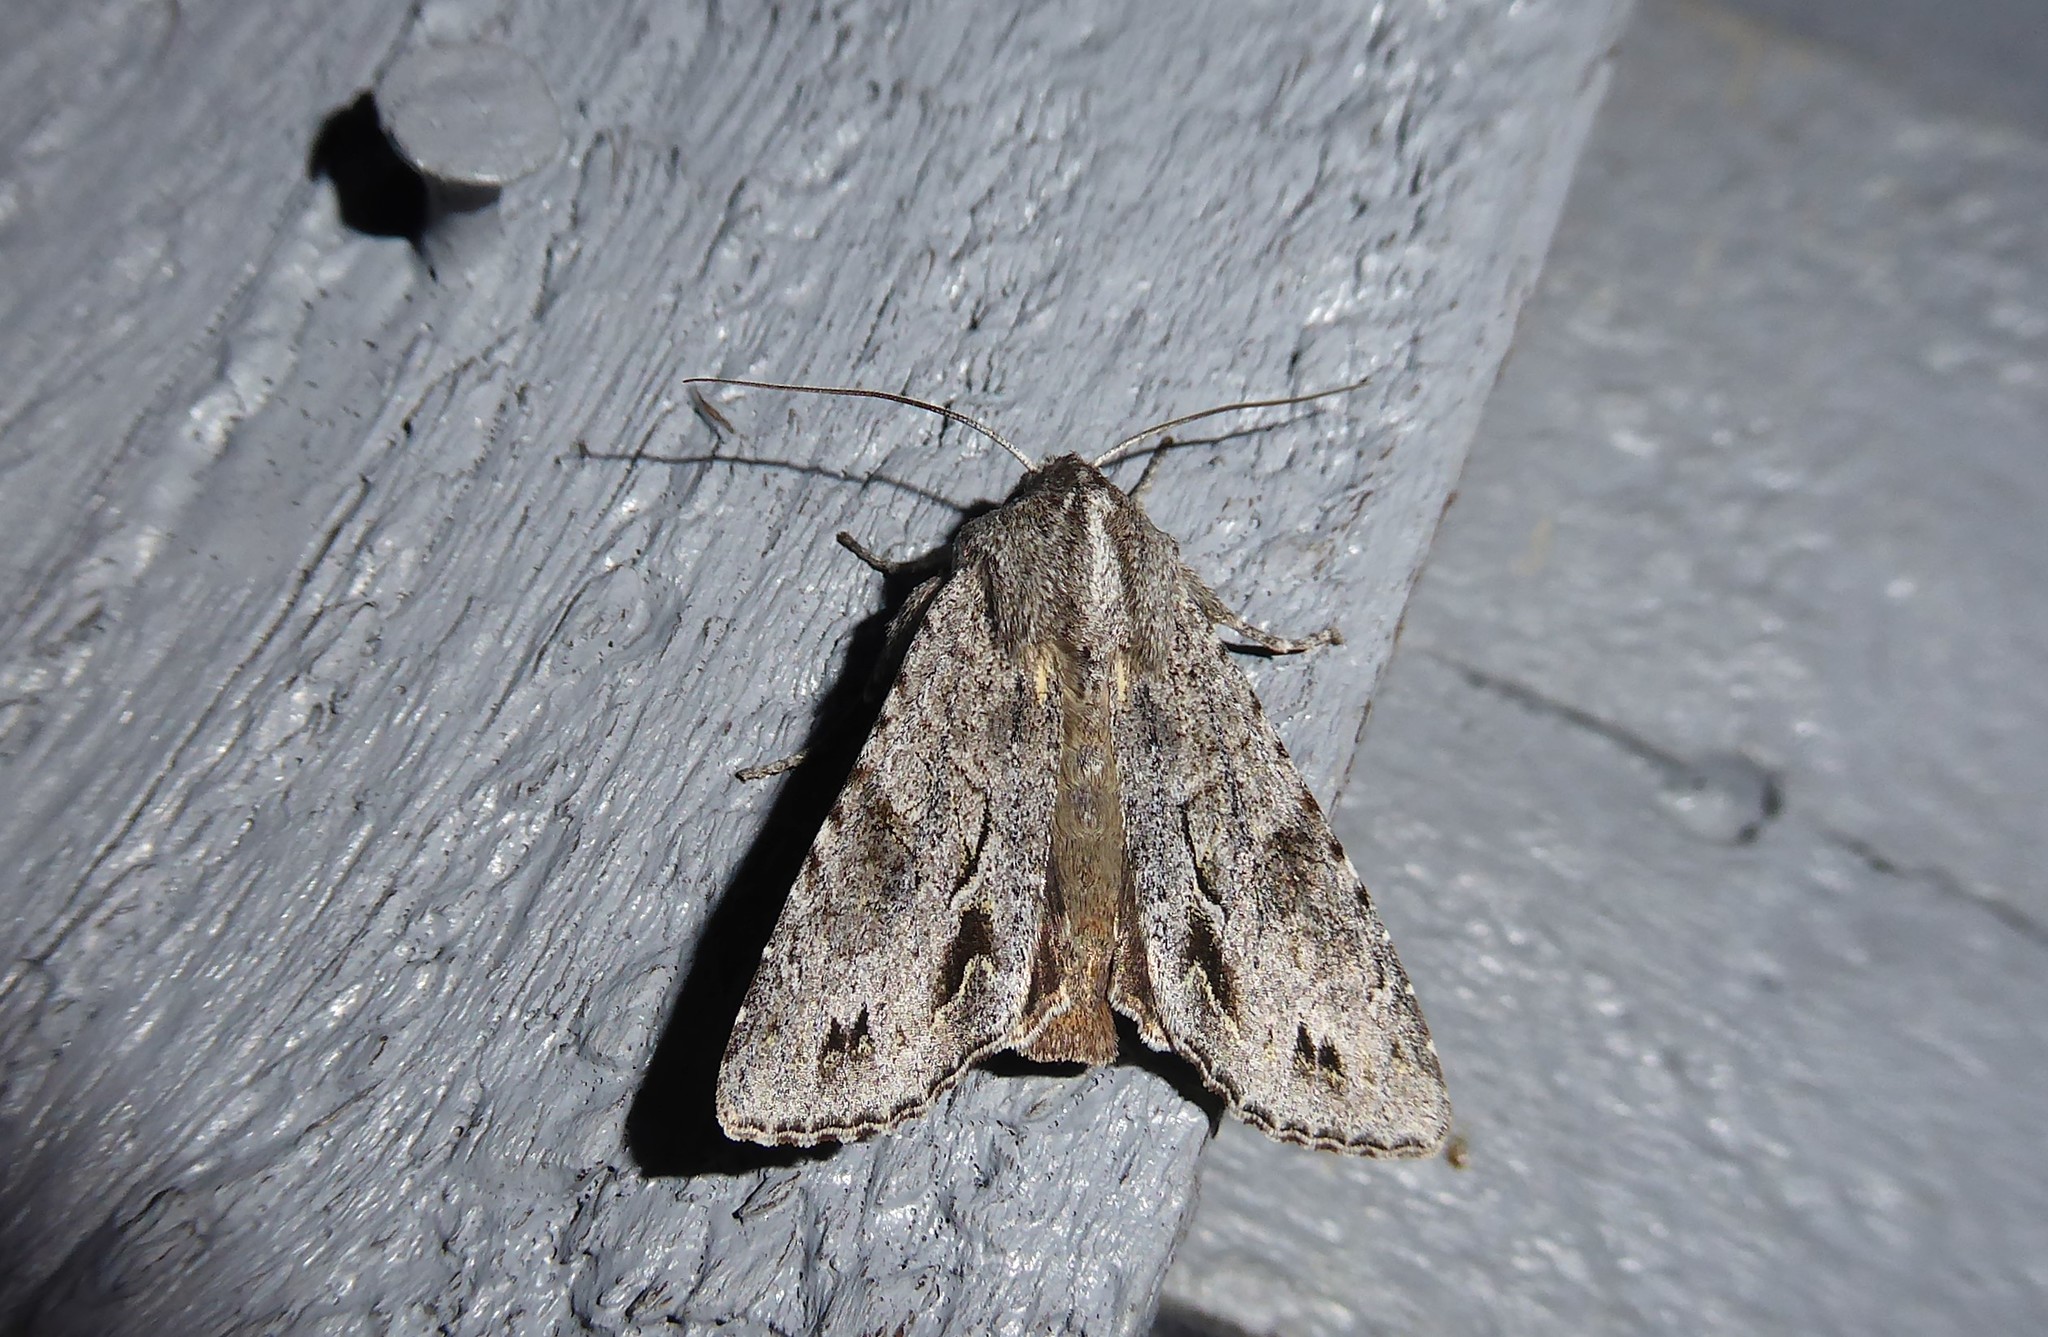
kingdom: Animalia
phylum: Arthropoda
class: Insecta
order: Lepidoptera
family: Noctuidae
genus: Ichneutica
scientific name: Ichneutica
